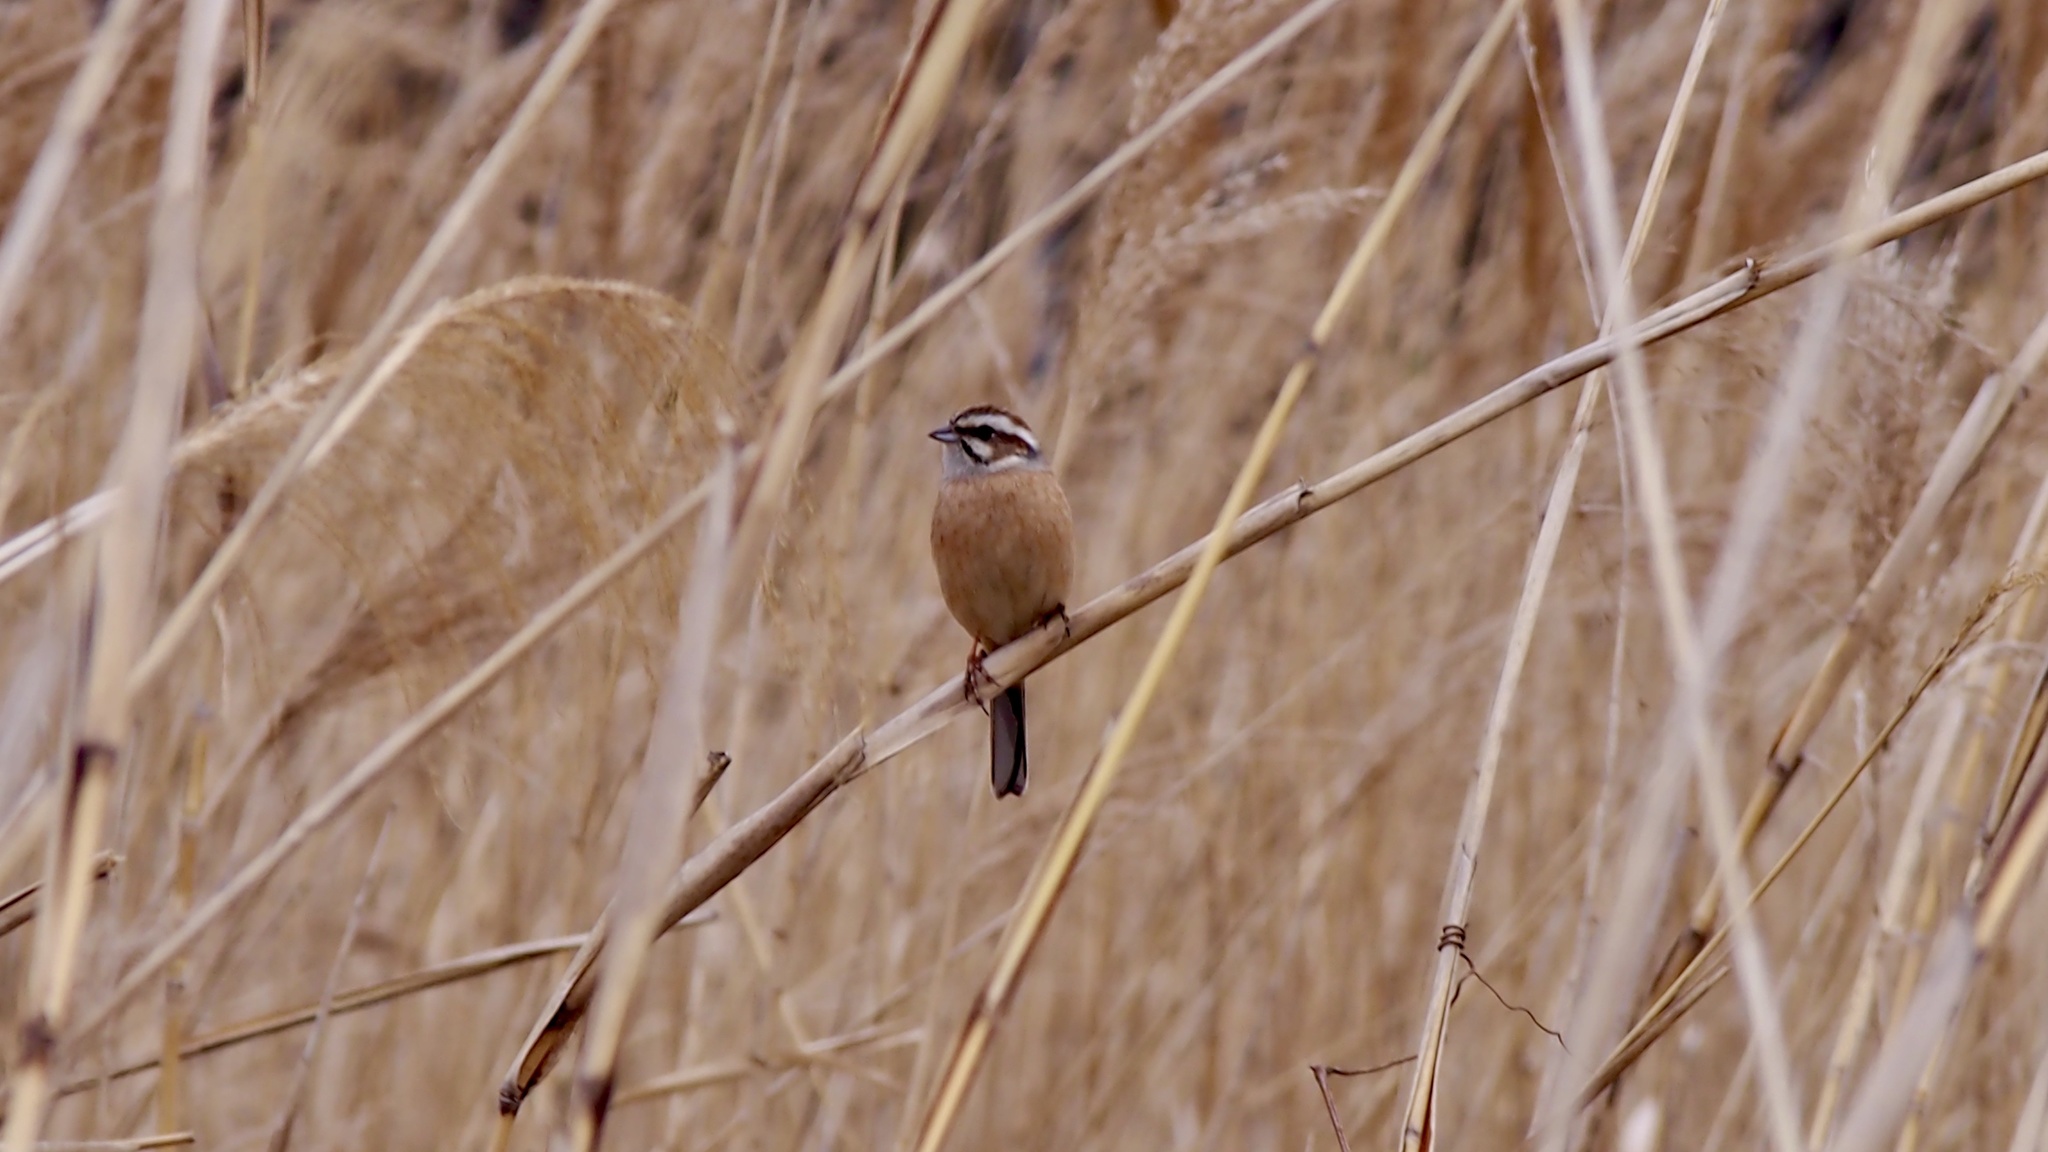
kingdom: Animalia
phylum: Chordata
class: Aves
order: Passeriformes
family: Emberizidae
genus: Emberiza
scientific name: Emberiza cioides
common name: Meadow bunting
